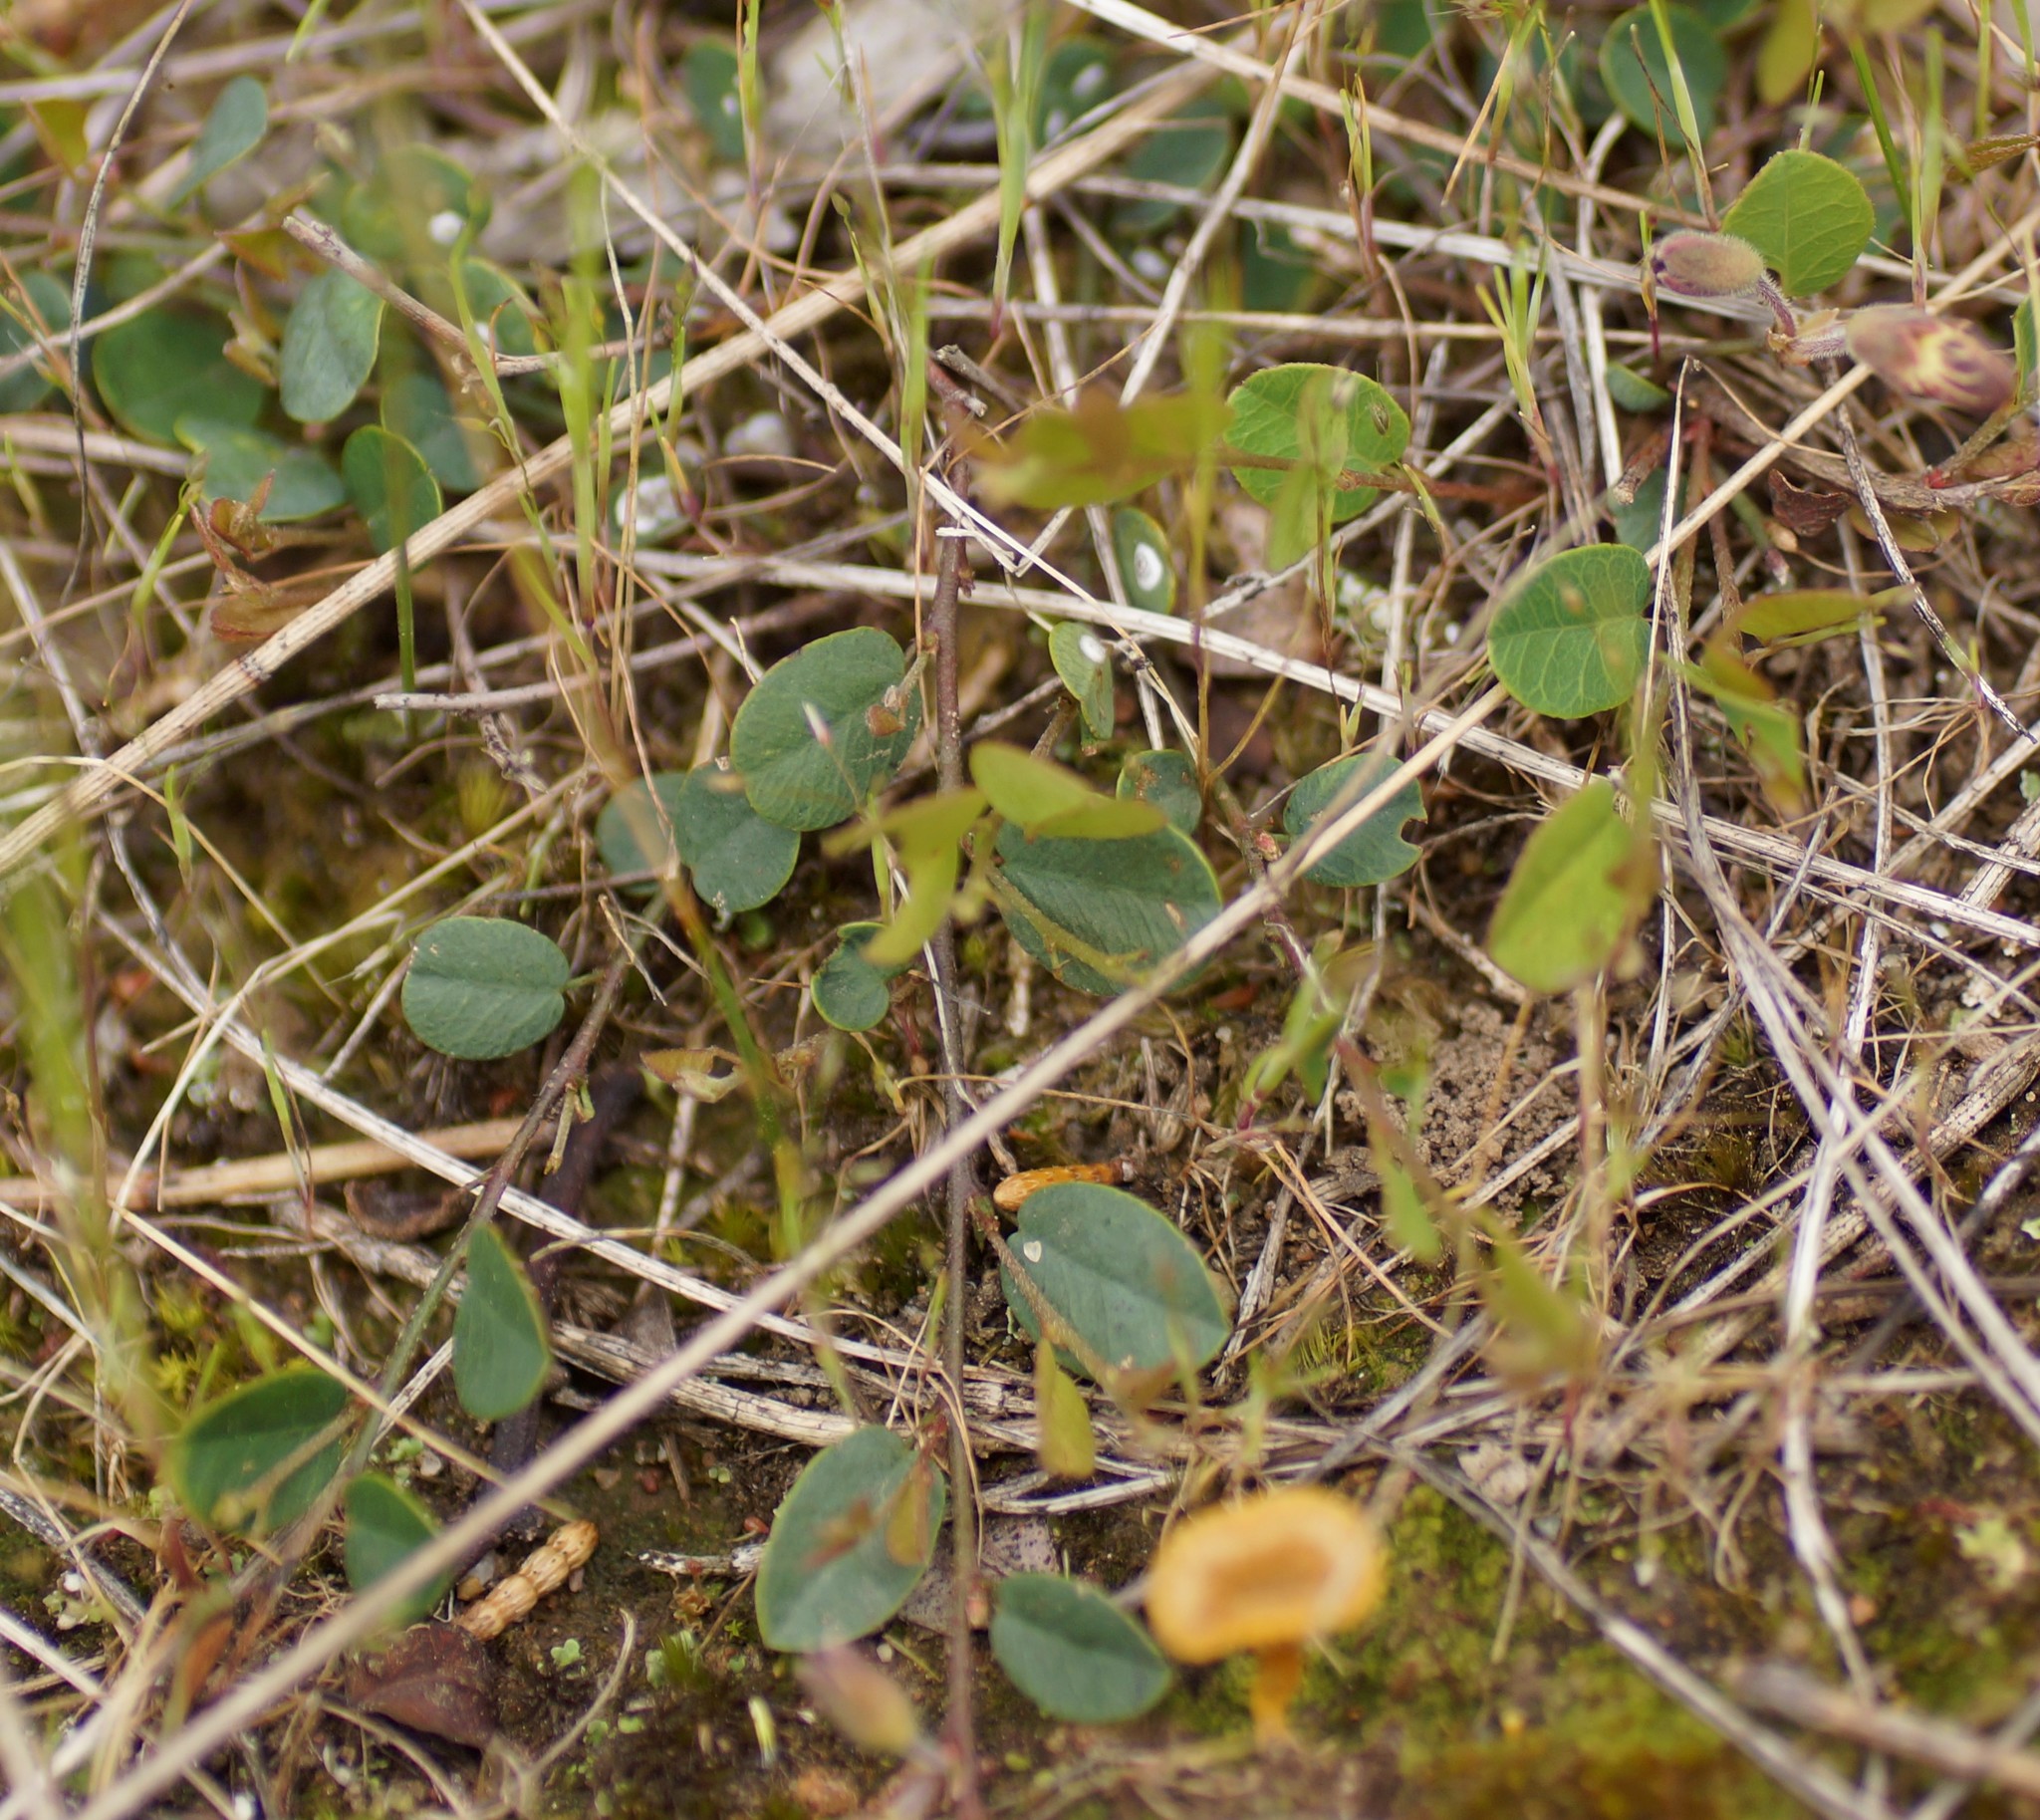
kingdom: Plantae
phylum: Tracheophyta
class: Magnoliopsida
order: Fabales
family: Fabaceae
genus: Bossiaea
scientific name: Bossiaea prostrata
